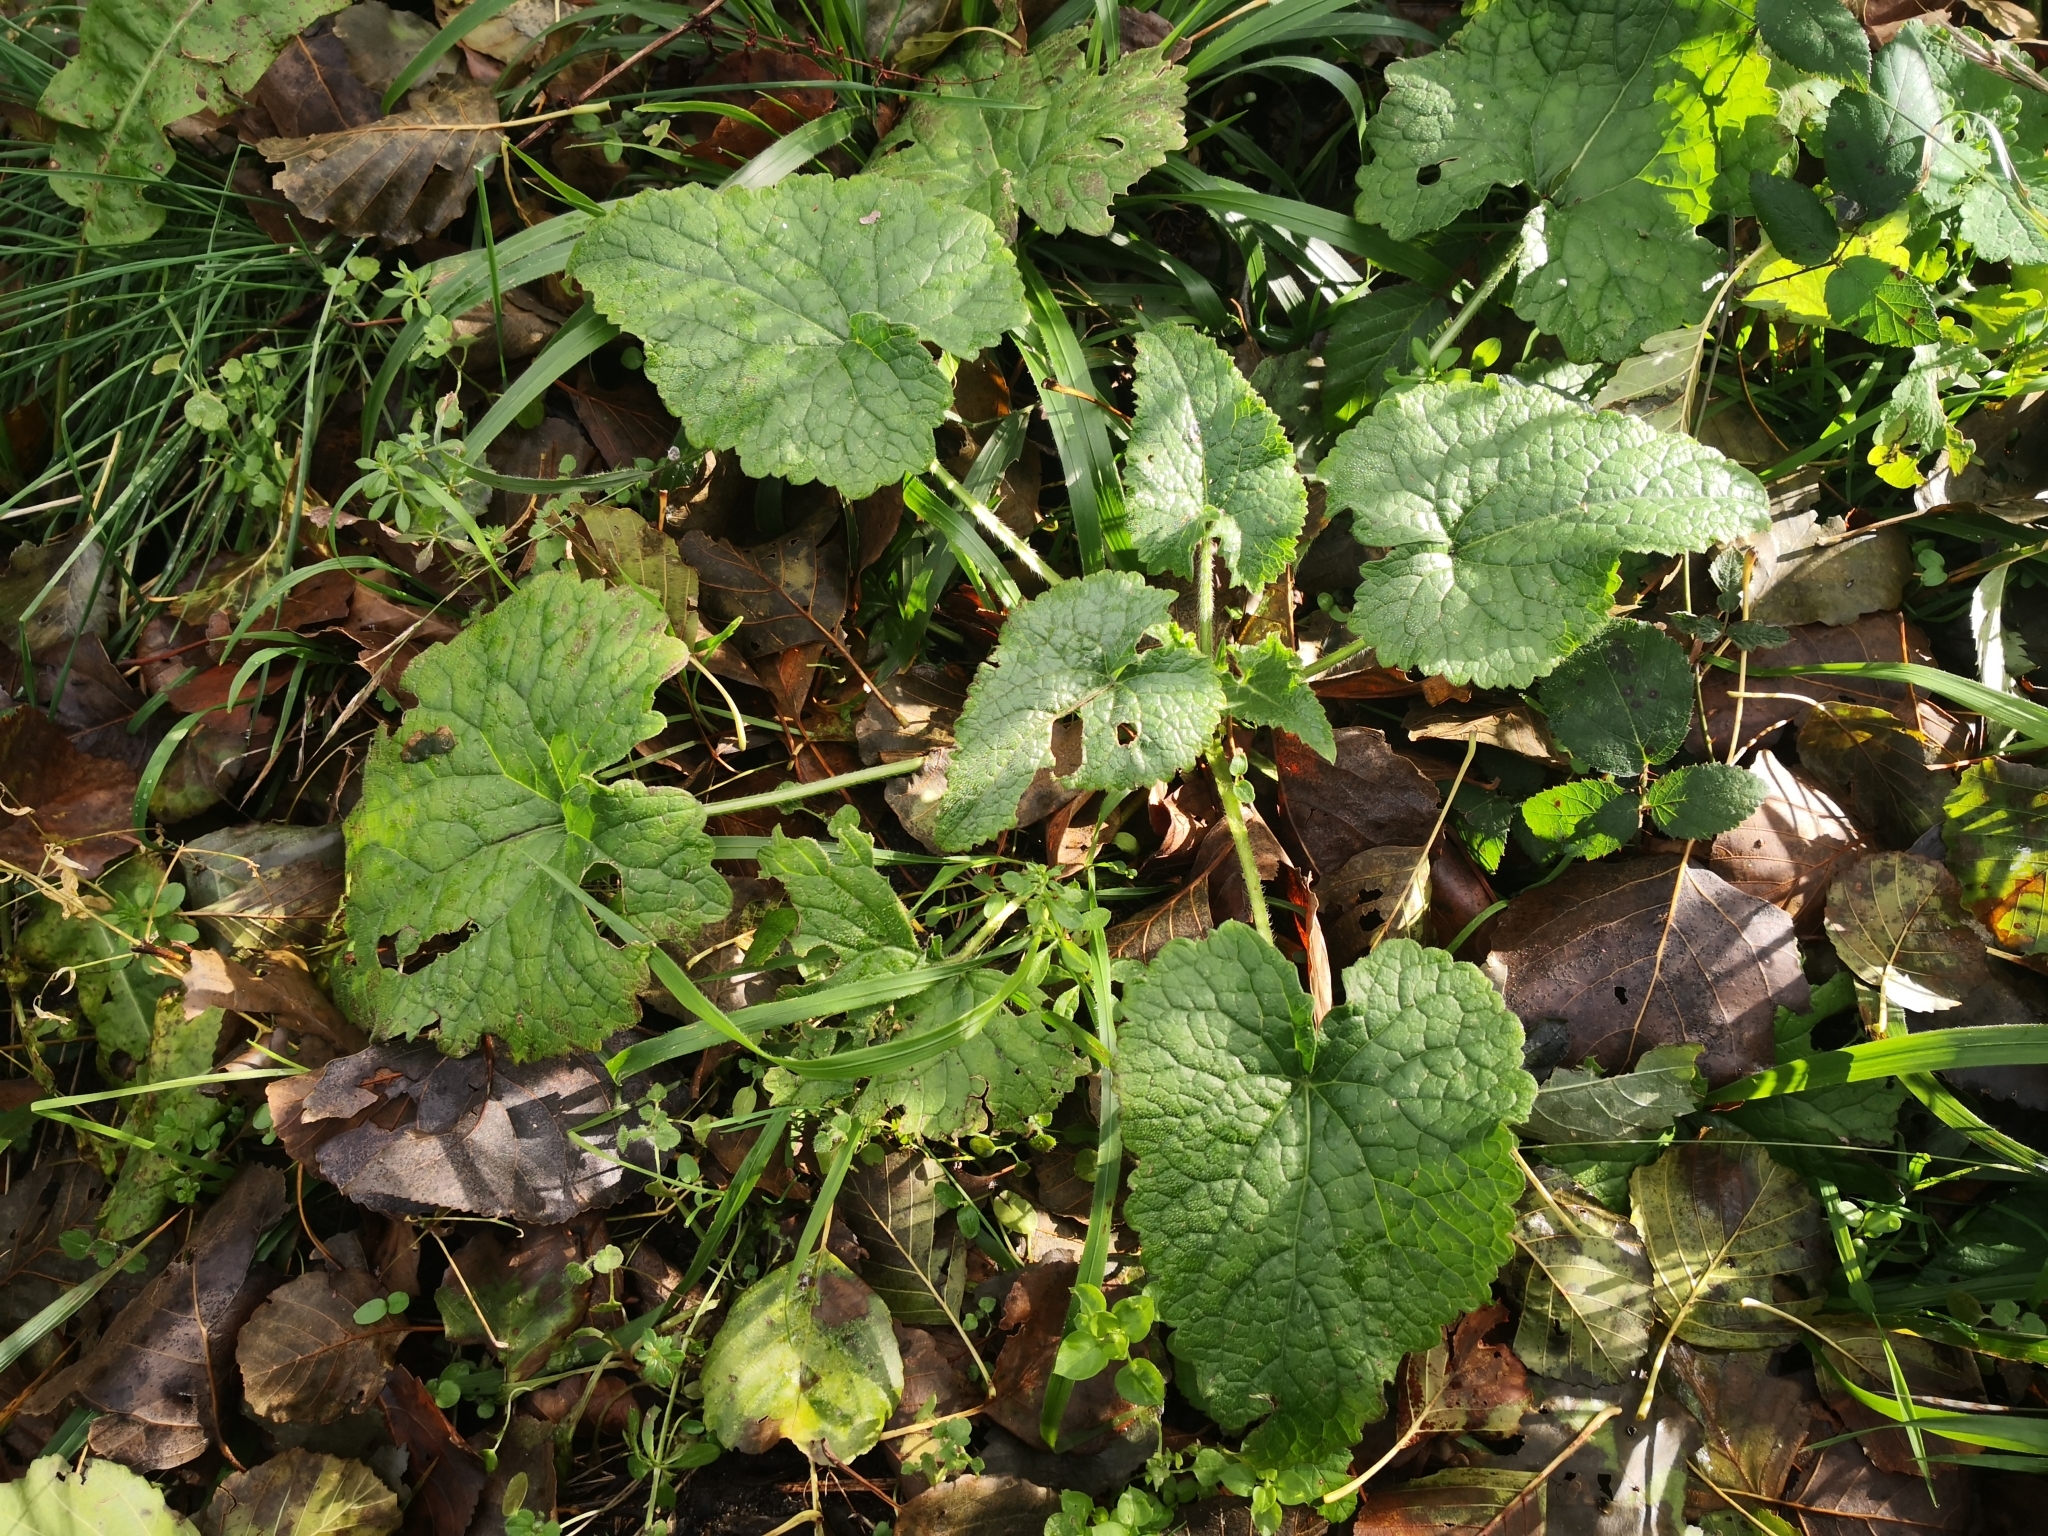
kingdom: Plantae
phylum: Tracheophyta
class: Magnoliopsida
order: Brassicales
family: Brassicaceae
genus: Lunaria
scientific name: Lunaria annua
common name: Honesty
